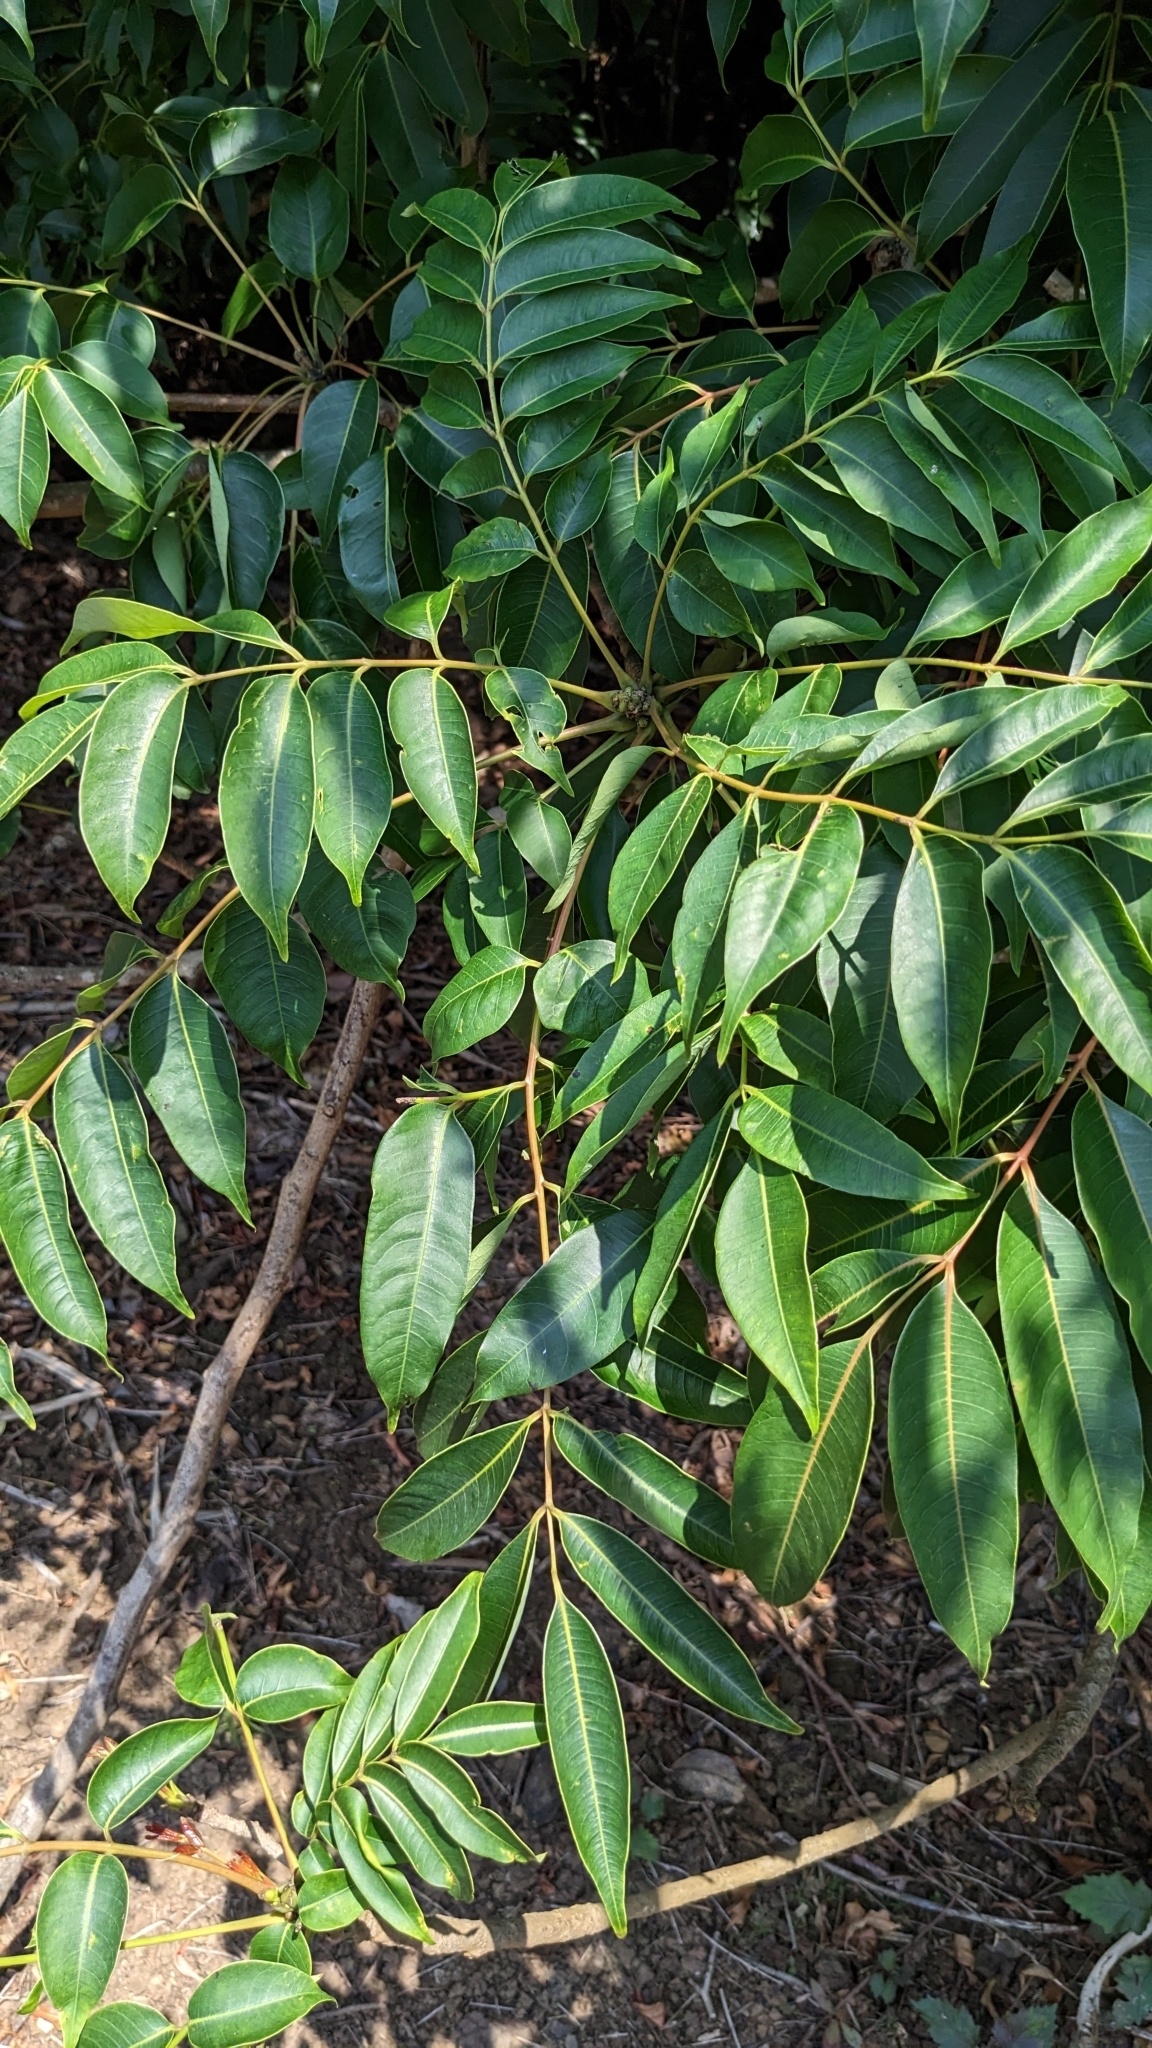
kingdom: Plantae
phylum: Tracheophyta
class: Magnoliopsida
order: Sapindales
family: Anacardiaceae
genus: Toxicodendron
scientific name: Toxicodendron succedaneum
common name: Wax tree
